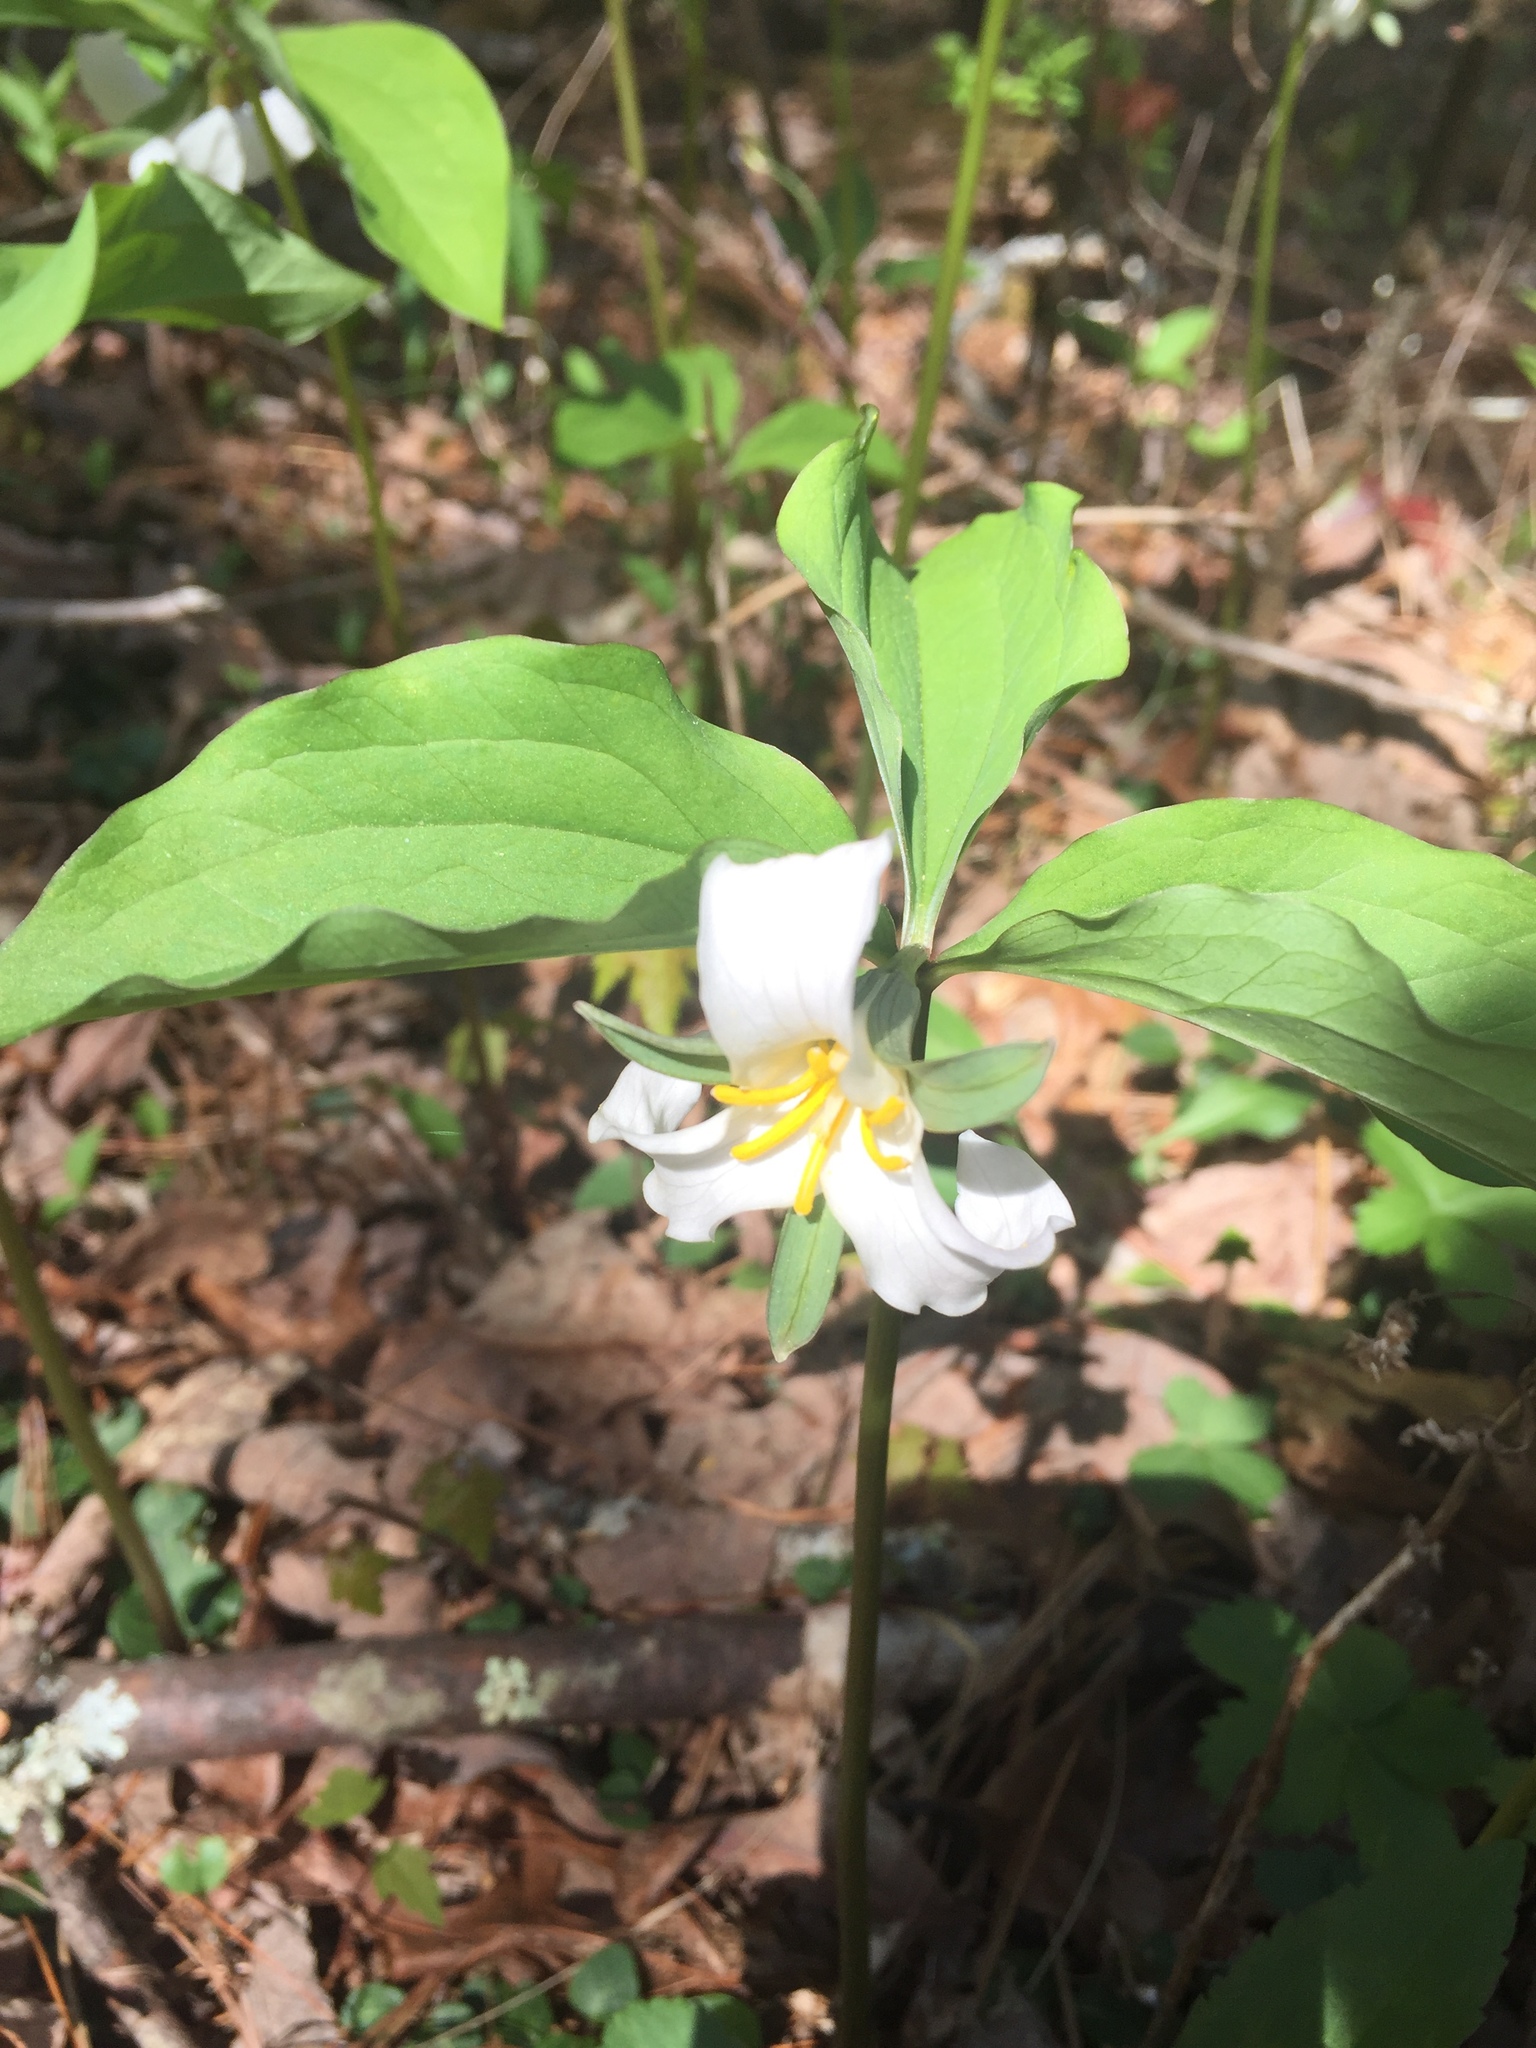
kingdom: Plantae
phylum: Tracheophyta
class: Liliopsida
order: Liliales
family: Melanthiaceae
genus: Trillium
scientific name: Trillium catesbaei
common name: Bashful trillium
